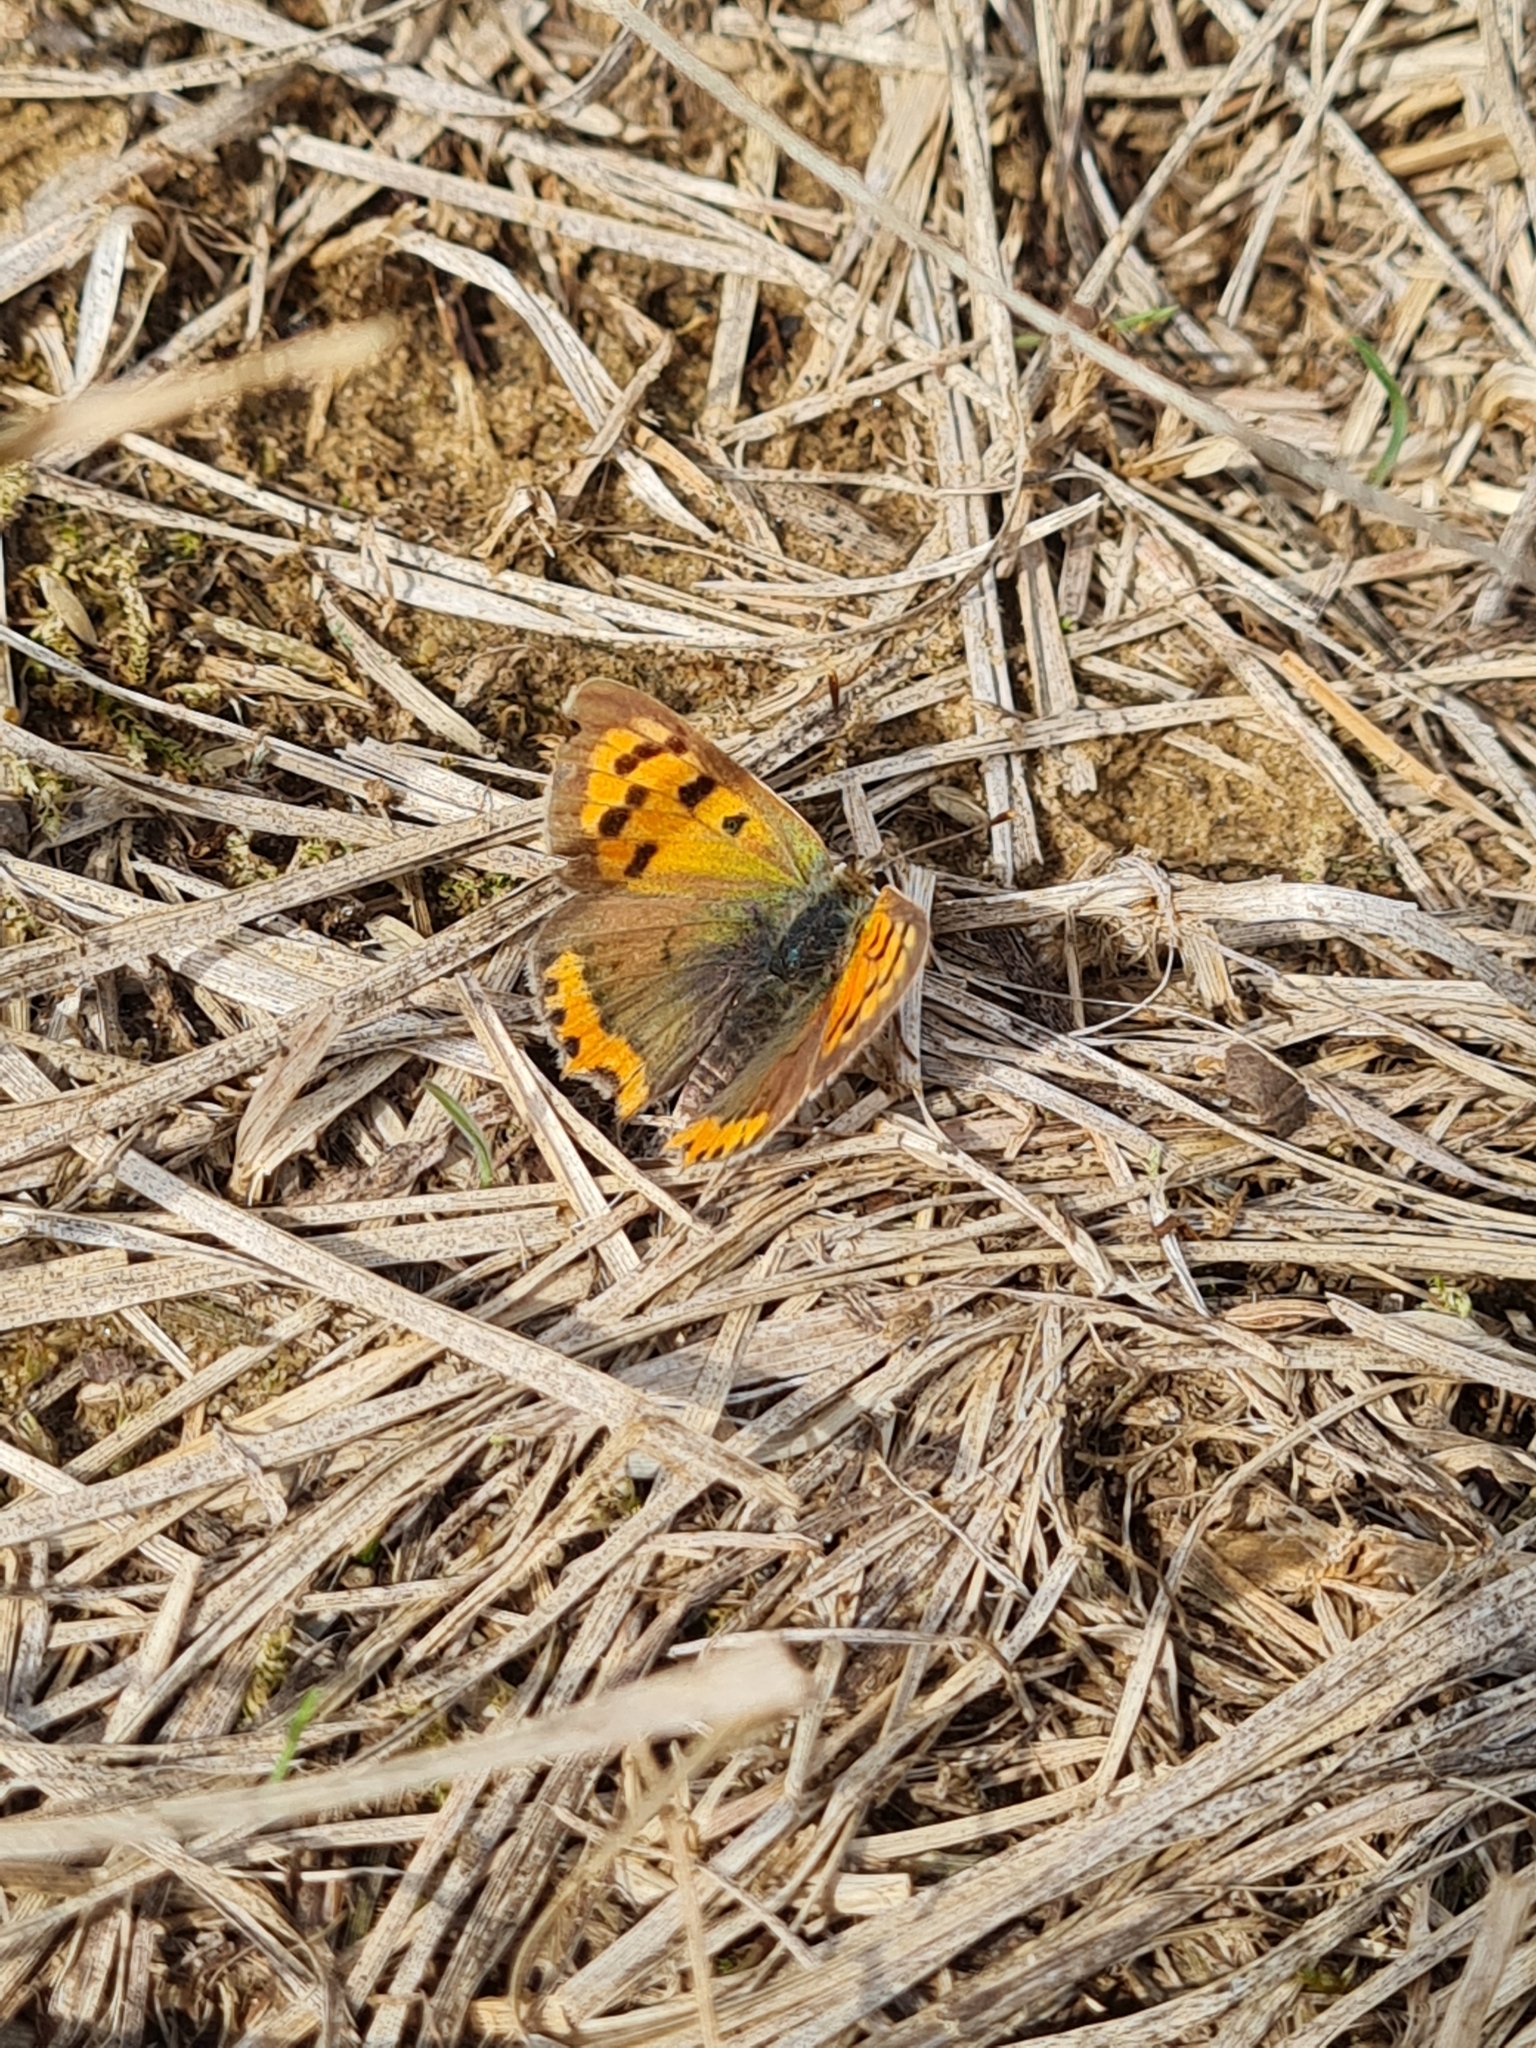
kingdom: Animalia
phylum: Arthropoda
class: Insecta
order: Lepidoptera
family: Lycaenidae
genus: Lycaena
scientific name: Lycaena phlaeas
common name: Small copper
